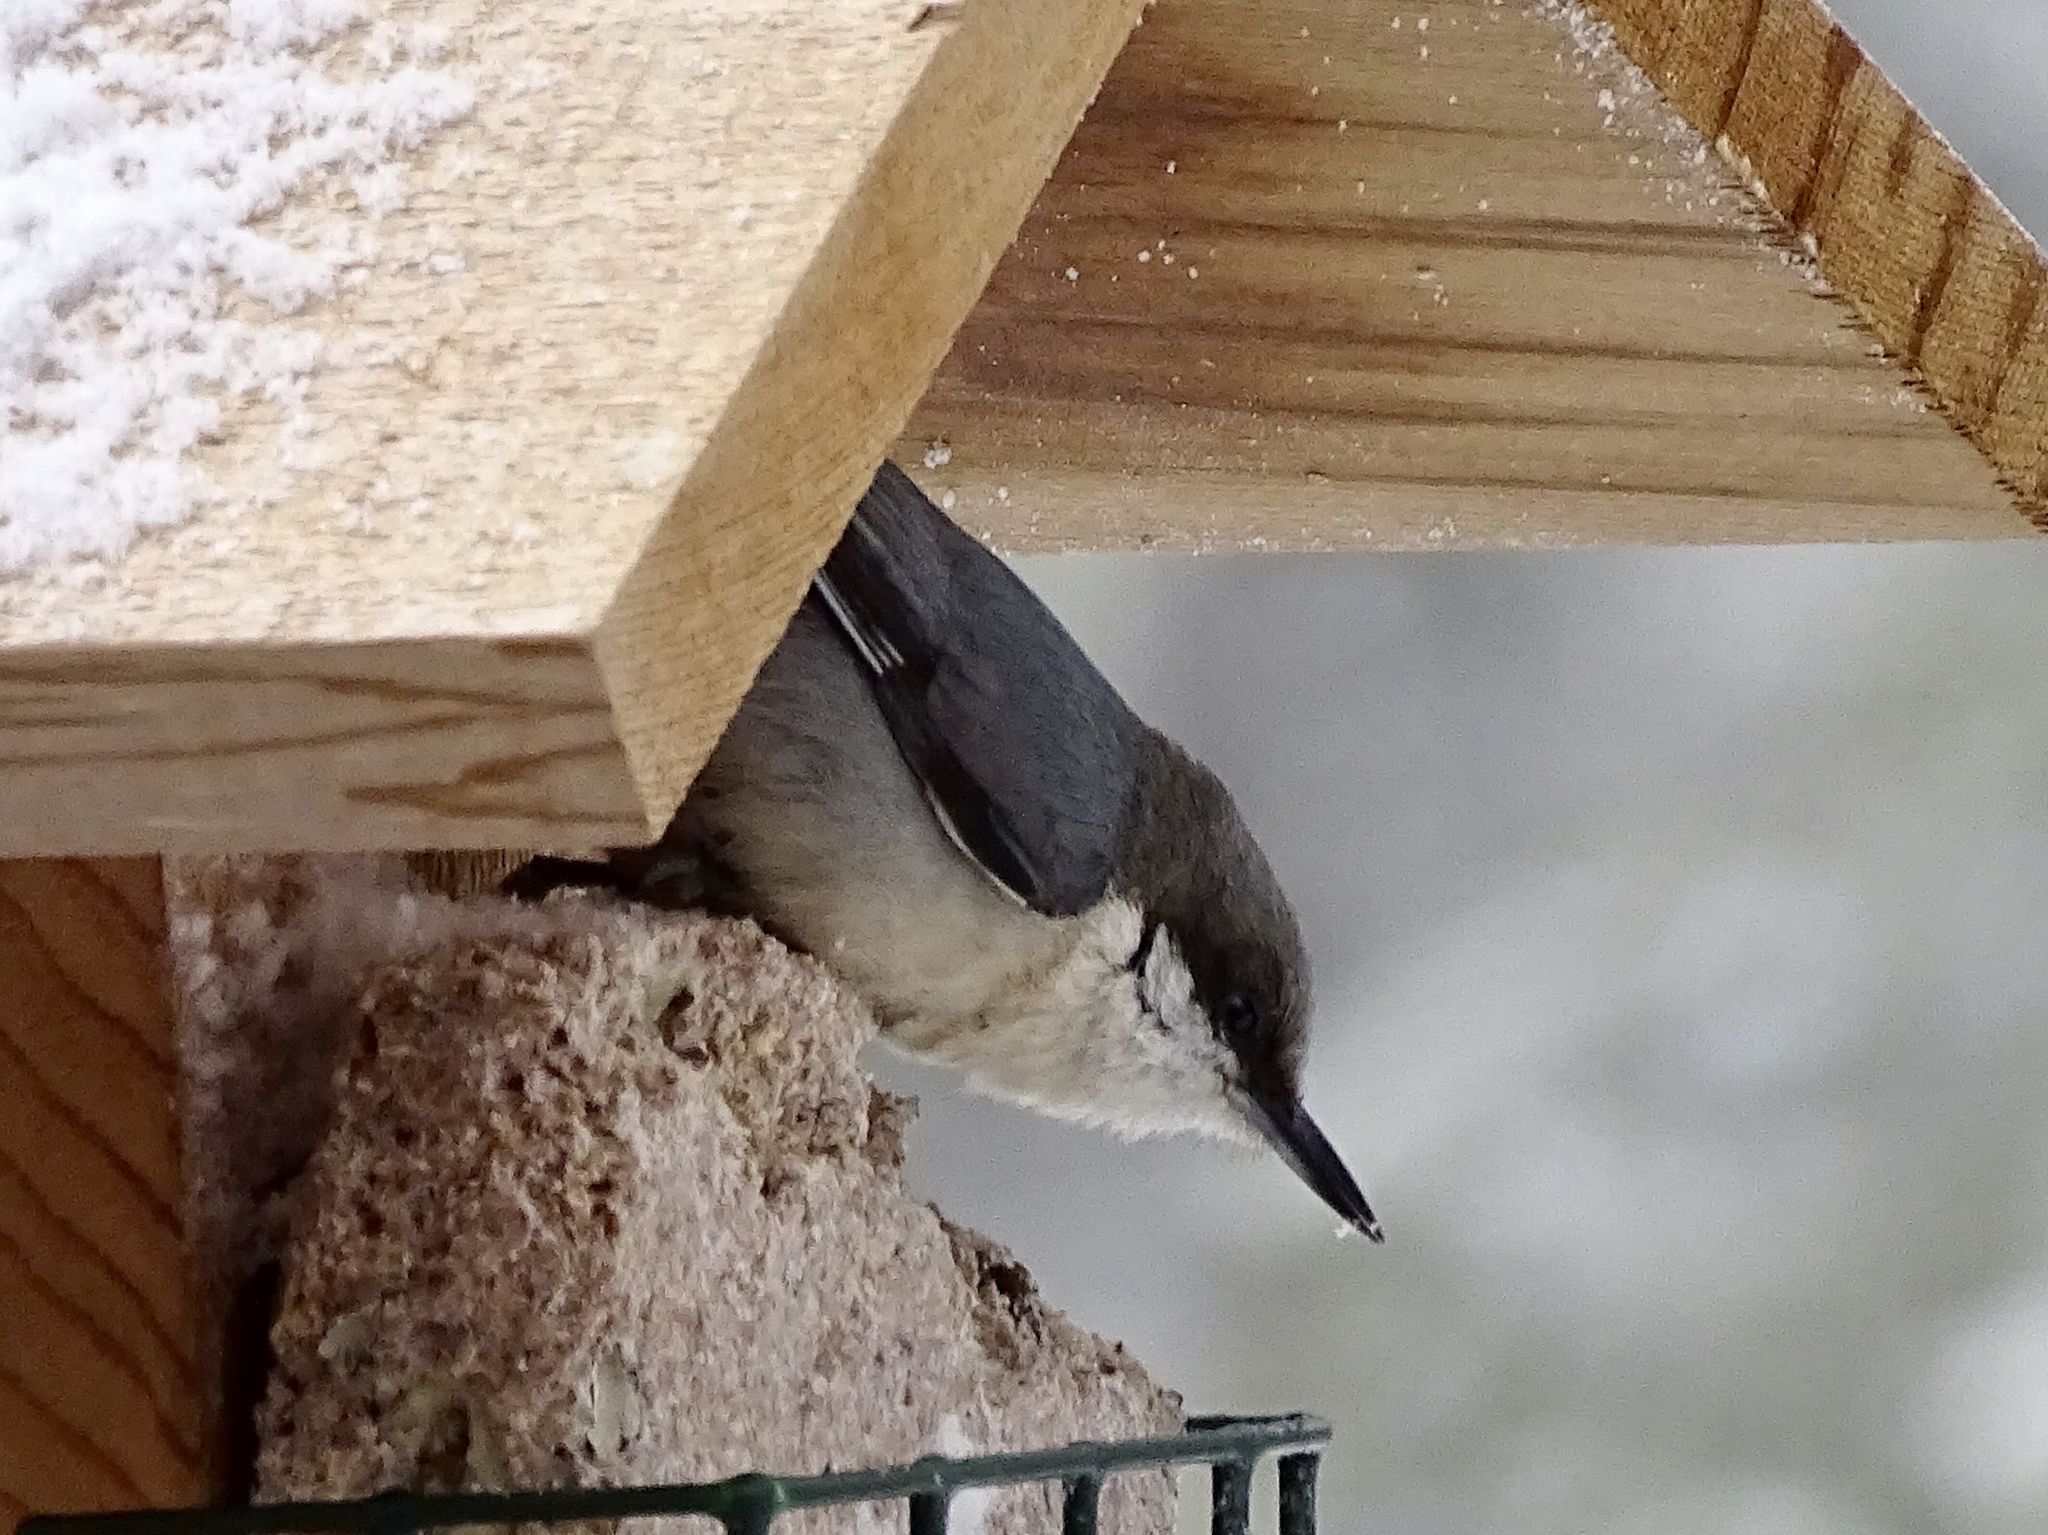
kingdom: Animalia
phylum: Chordata
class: Aves
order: Passeriformes
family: Sittidae
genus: Sitta
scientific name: Sitta pygmaea
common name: Pygmy nuthatch
